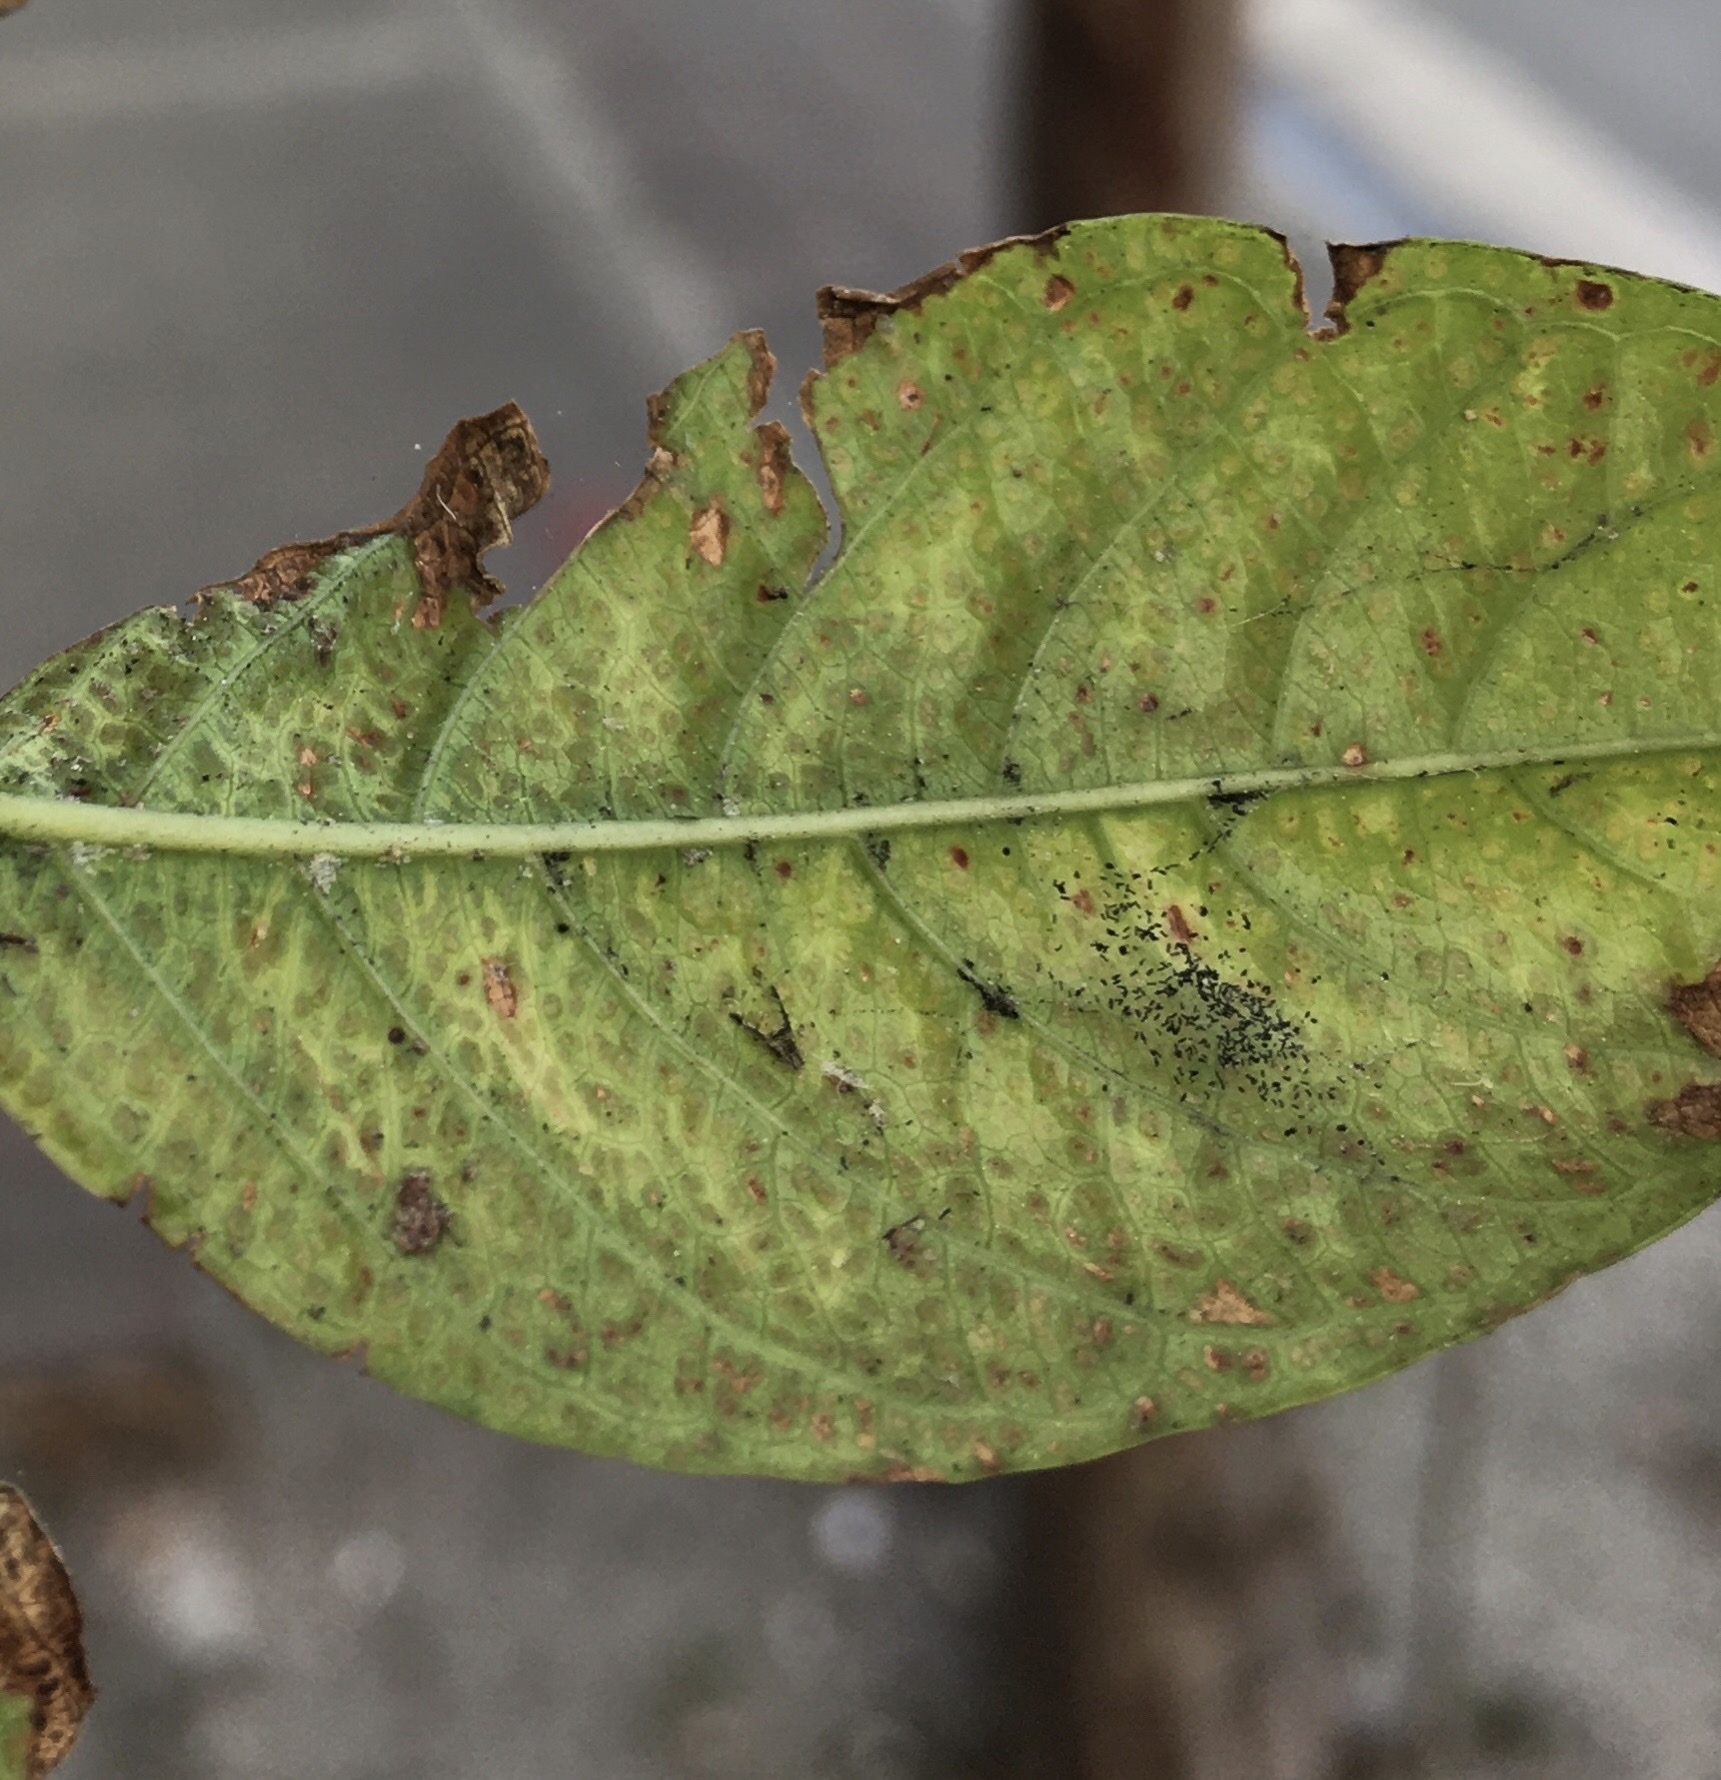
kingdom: Animalia
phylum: Arthropoda
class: Insecta
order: Hemiptera
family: Aphididae
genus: Sarucallis
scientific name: Sarucallis kahawaluokalani
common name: Crapemyrtle aphid
